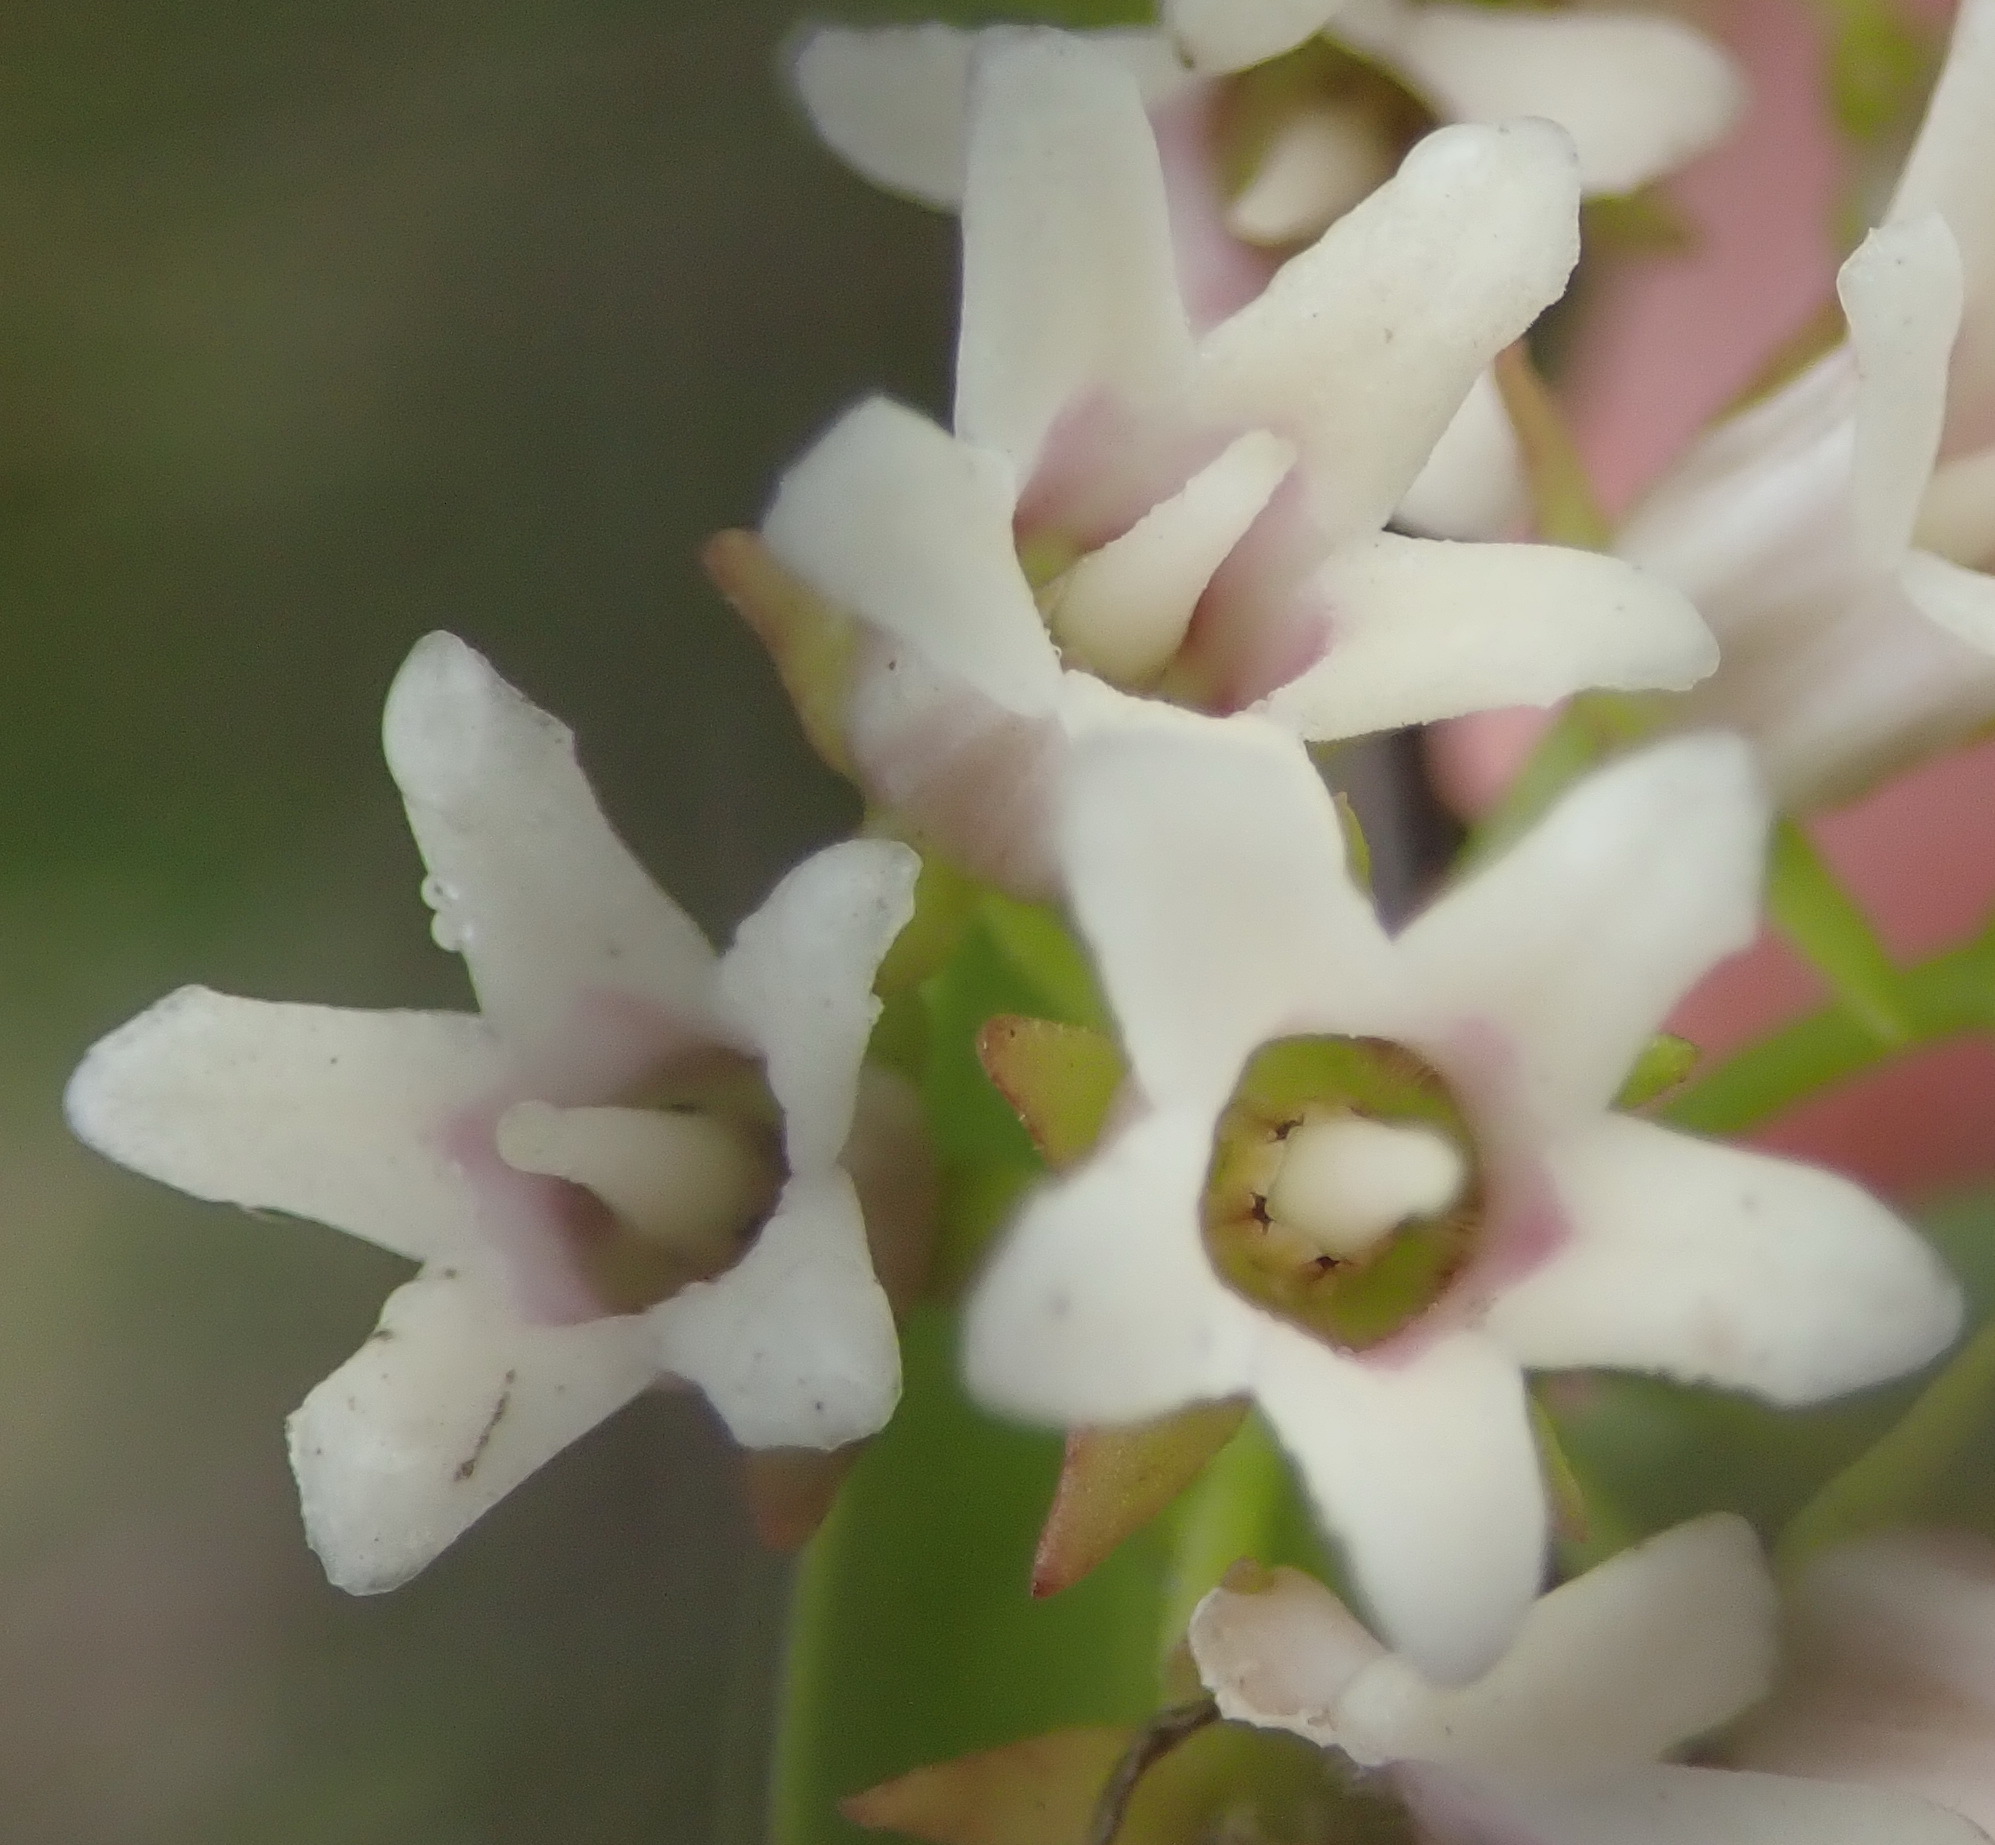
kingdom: Plantae
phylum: Tracheophyta
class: Magnoliopsida
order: Gentianales
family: Apocynaceae
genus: Astephanus
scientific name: Astephanus triflorus
